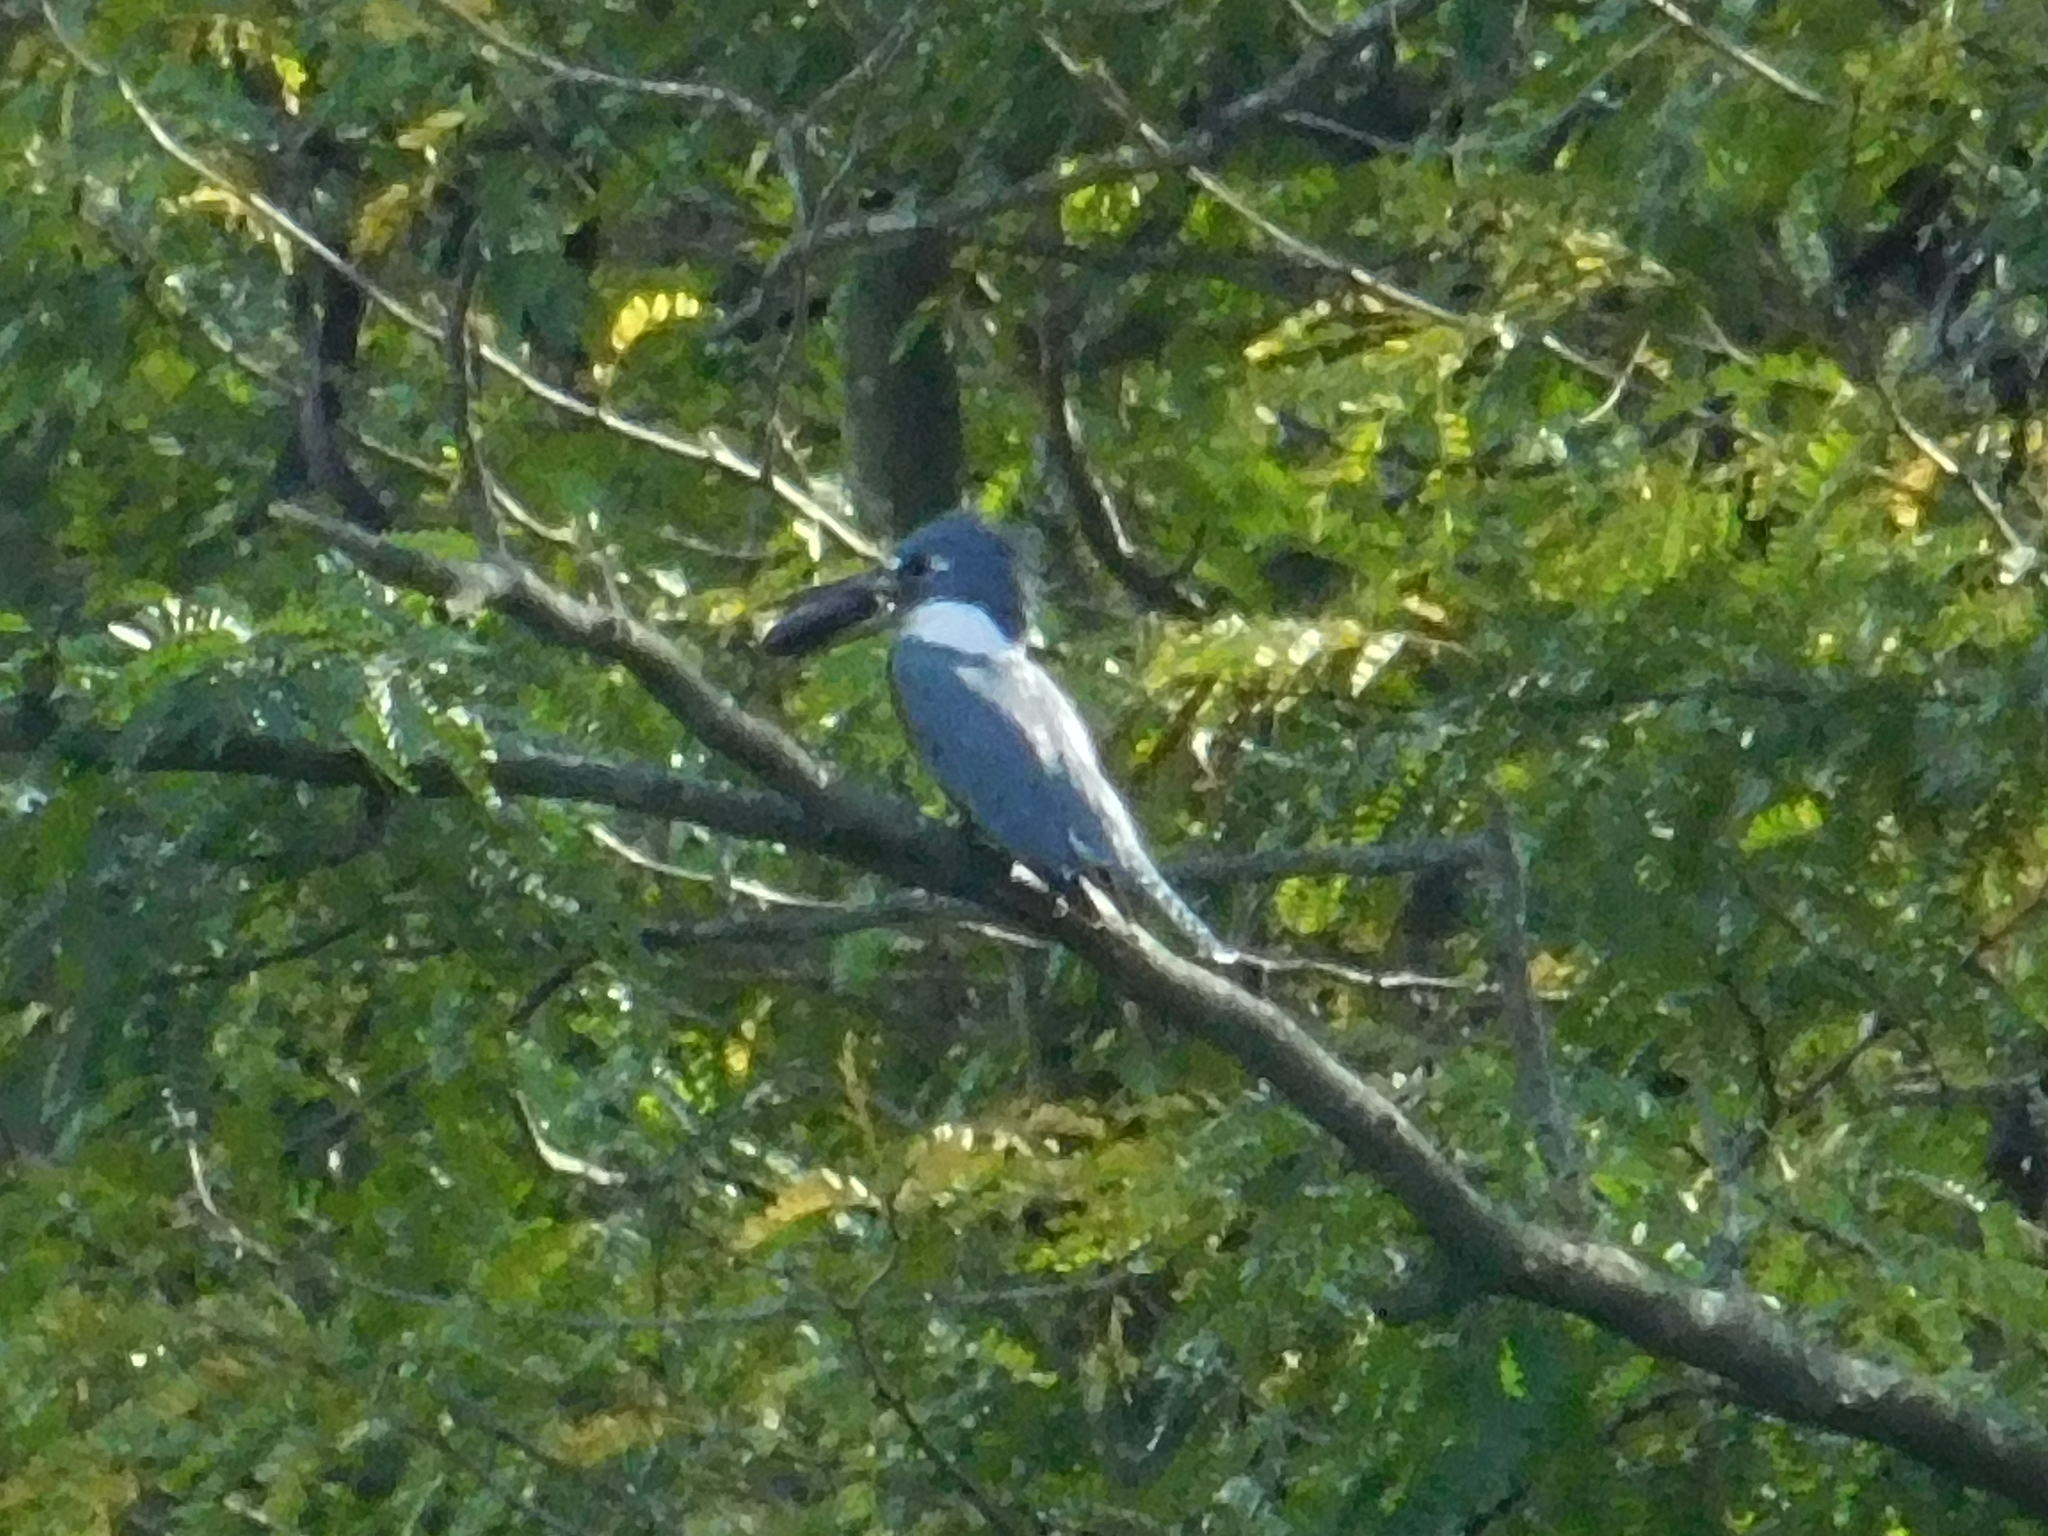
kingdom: Animalia
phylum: Chordata
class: Aves
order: Coraciiformes
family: Alcedinidae
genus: Megaceryle
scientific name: Megaceryle torquata
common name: Ringed kingfisher
